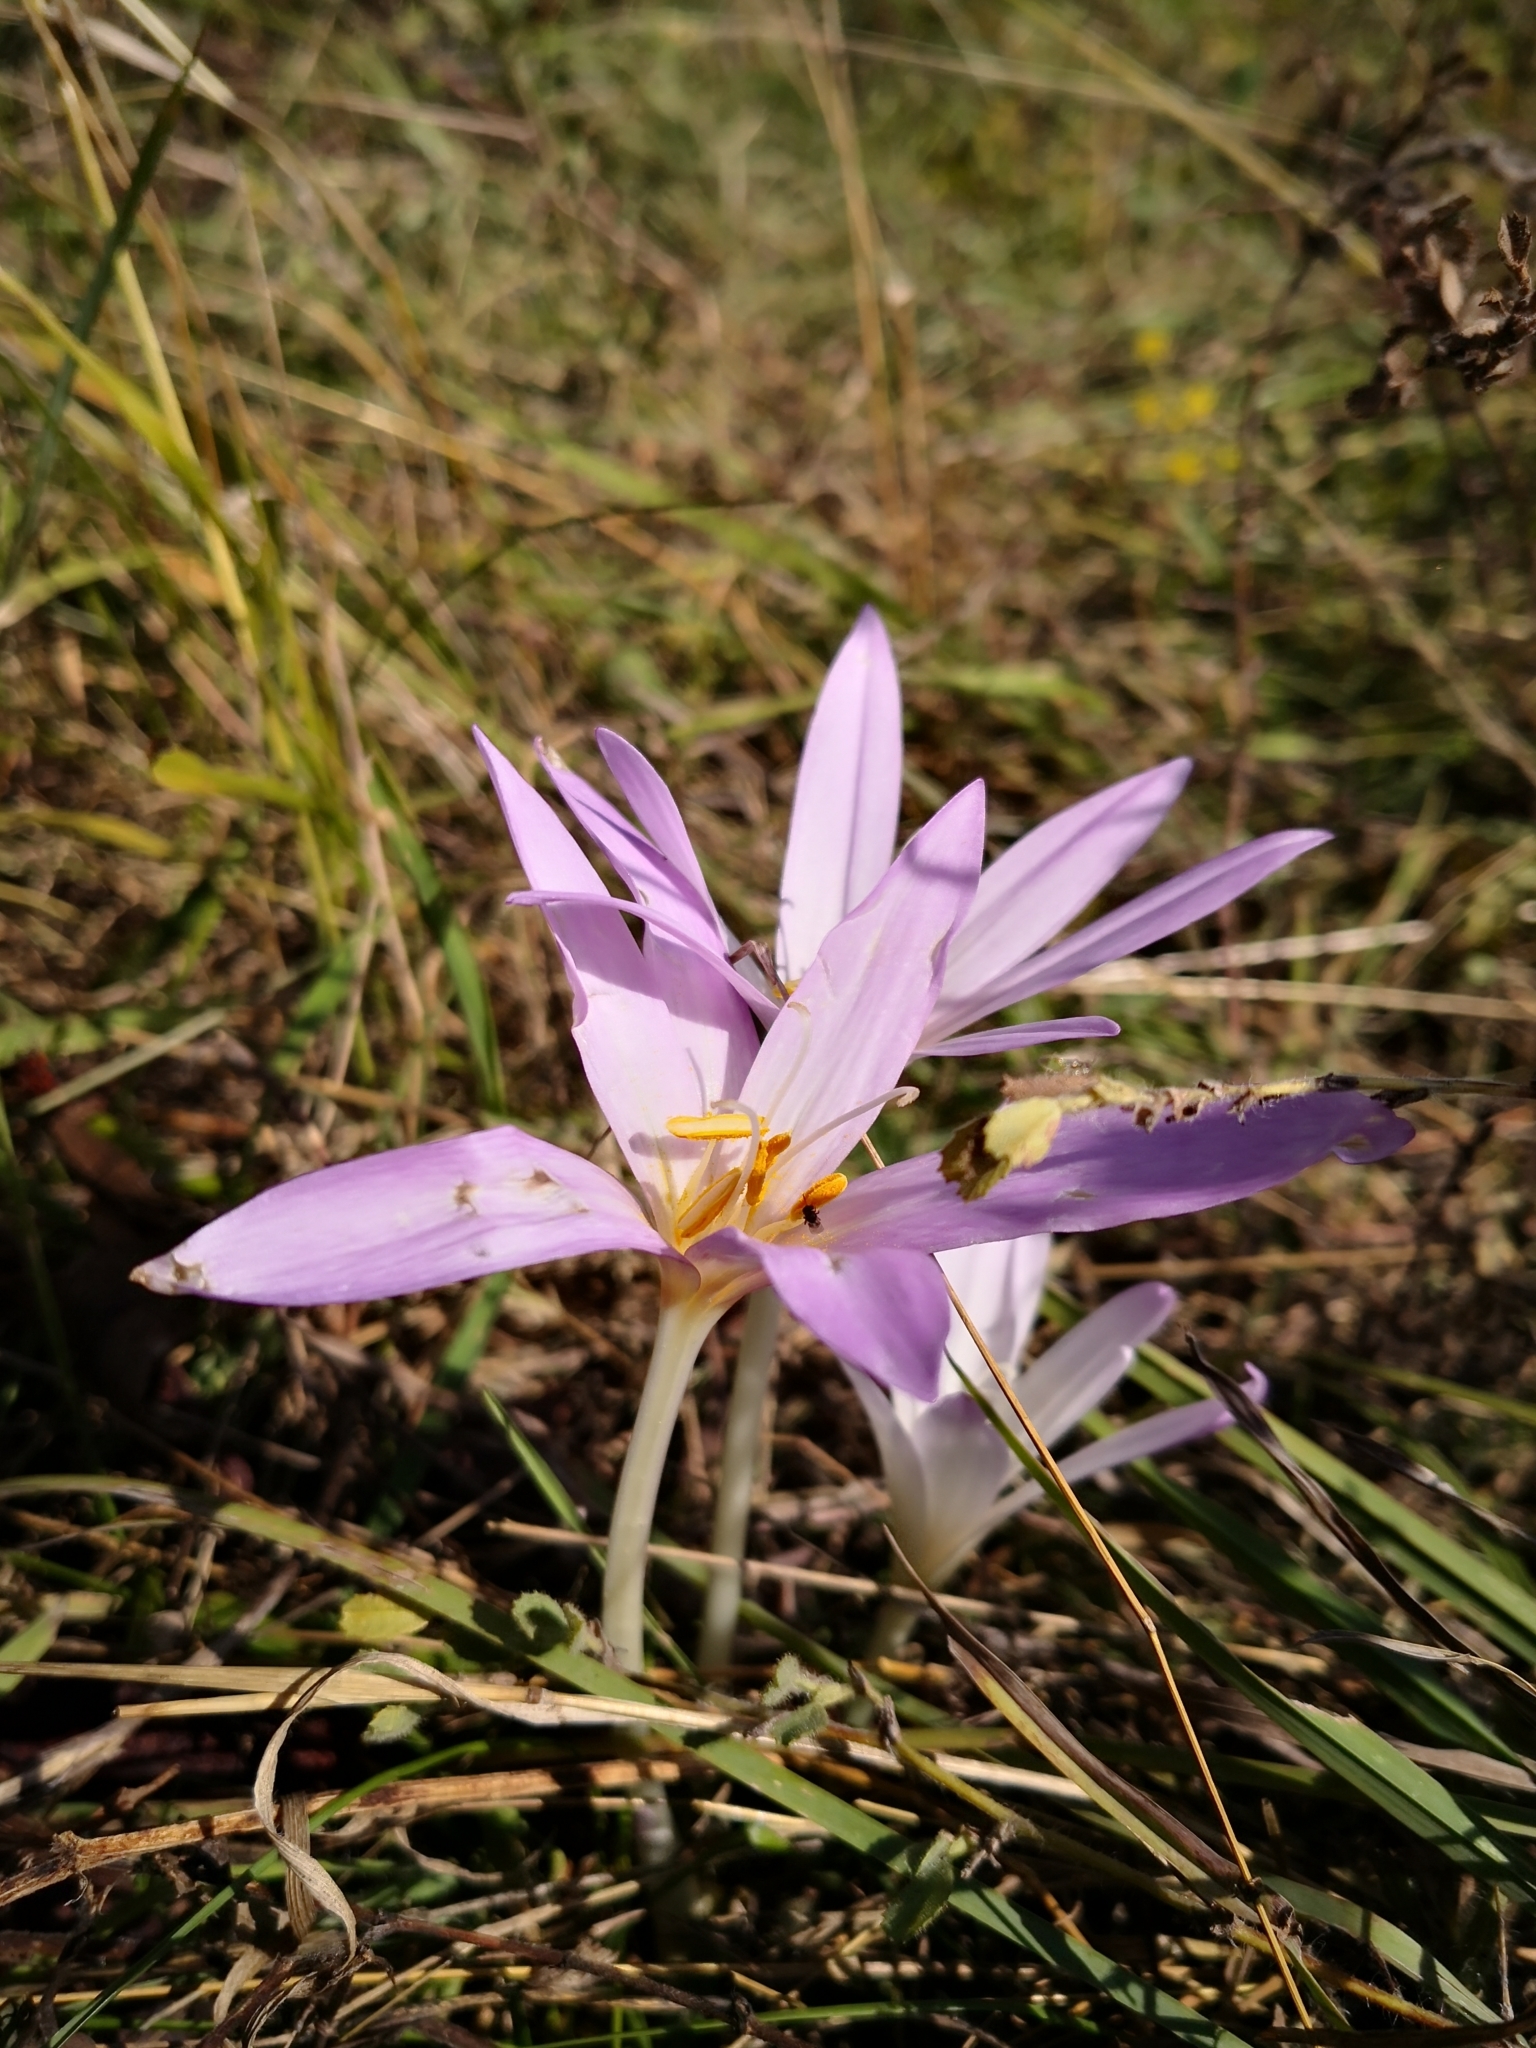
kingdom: Plantae
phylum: Tracheophyta
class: Liliopsida
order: Liliales
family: Colchicaceae
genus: Colchicum
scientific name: Colchicum autumnale
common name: Autumn crocus
